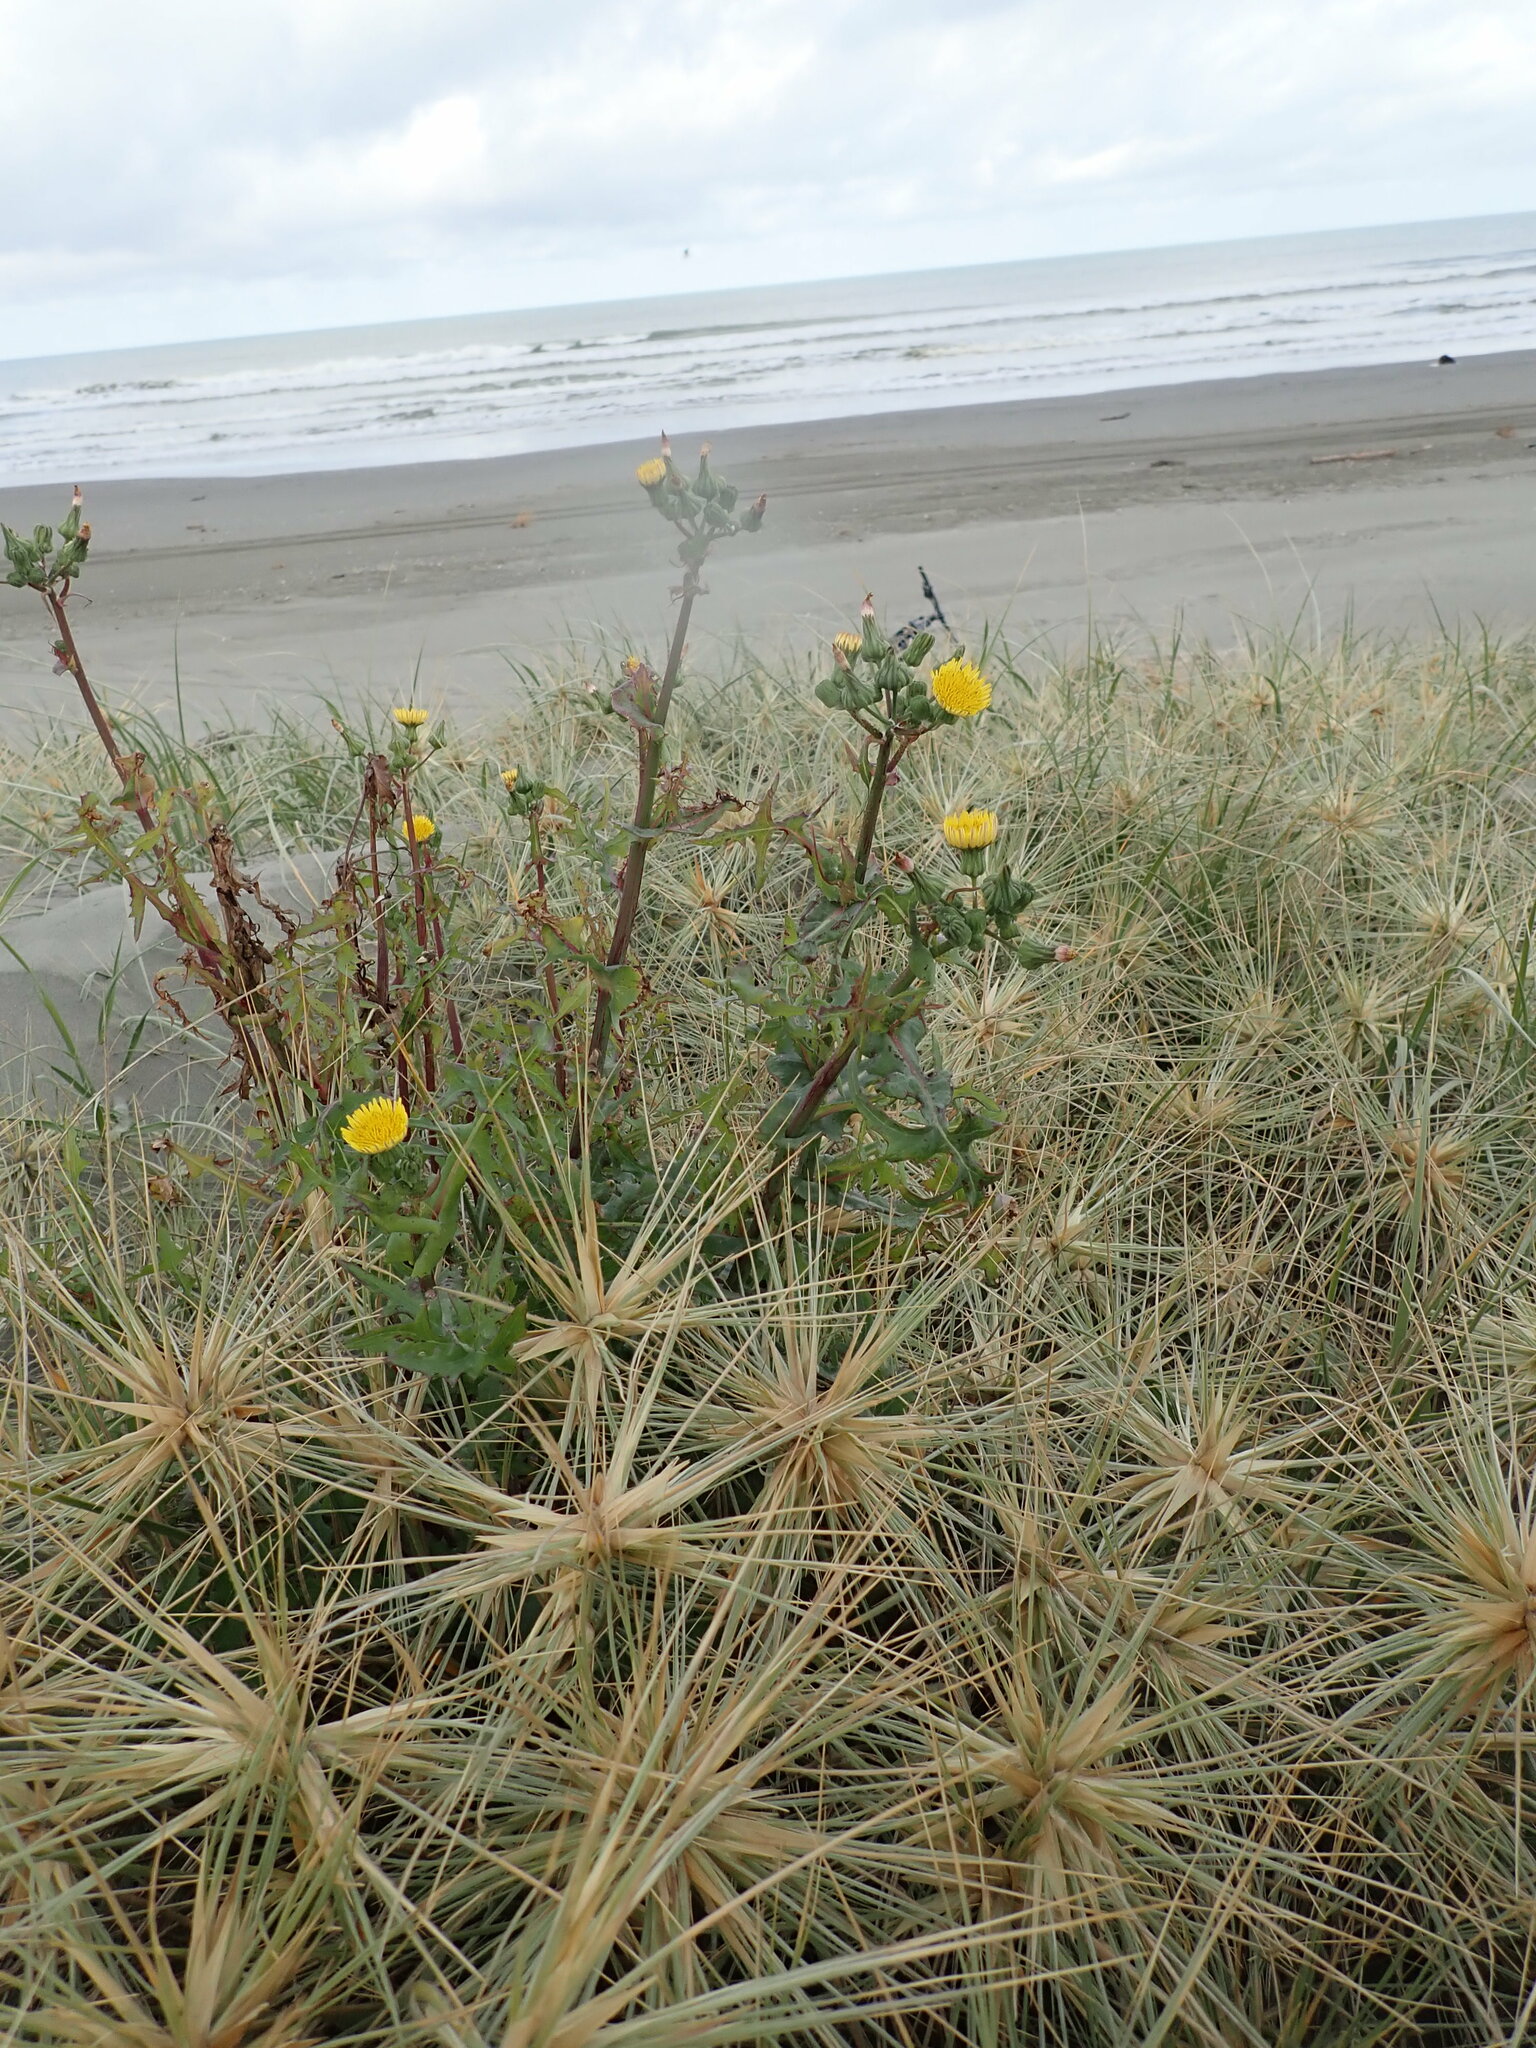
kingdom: Plantae
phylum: Tracheophyta
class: Magnoliopsida
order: Asterales
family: Asteraceae
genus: Sonchus
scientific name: Sonchus oleraceus
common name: Common sowthistle
